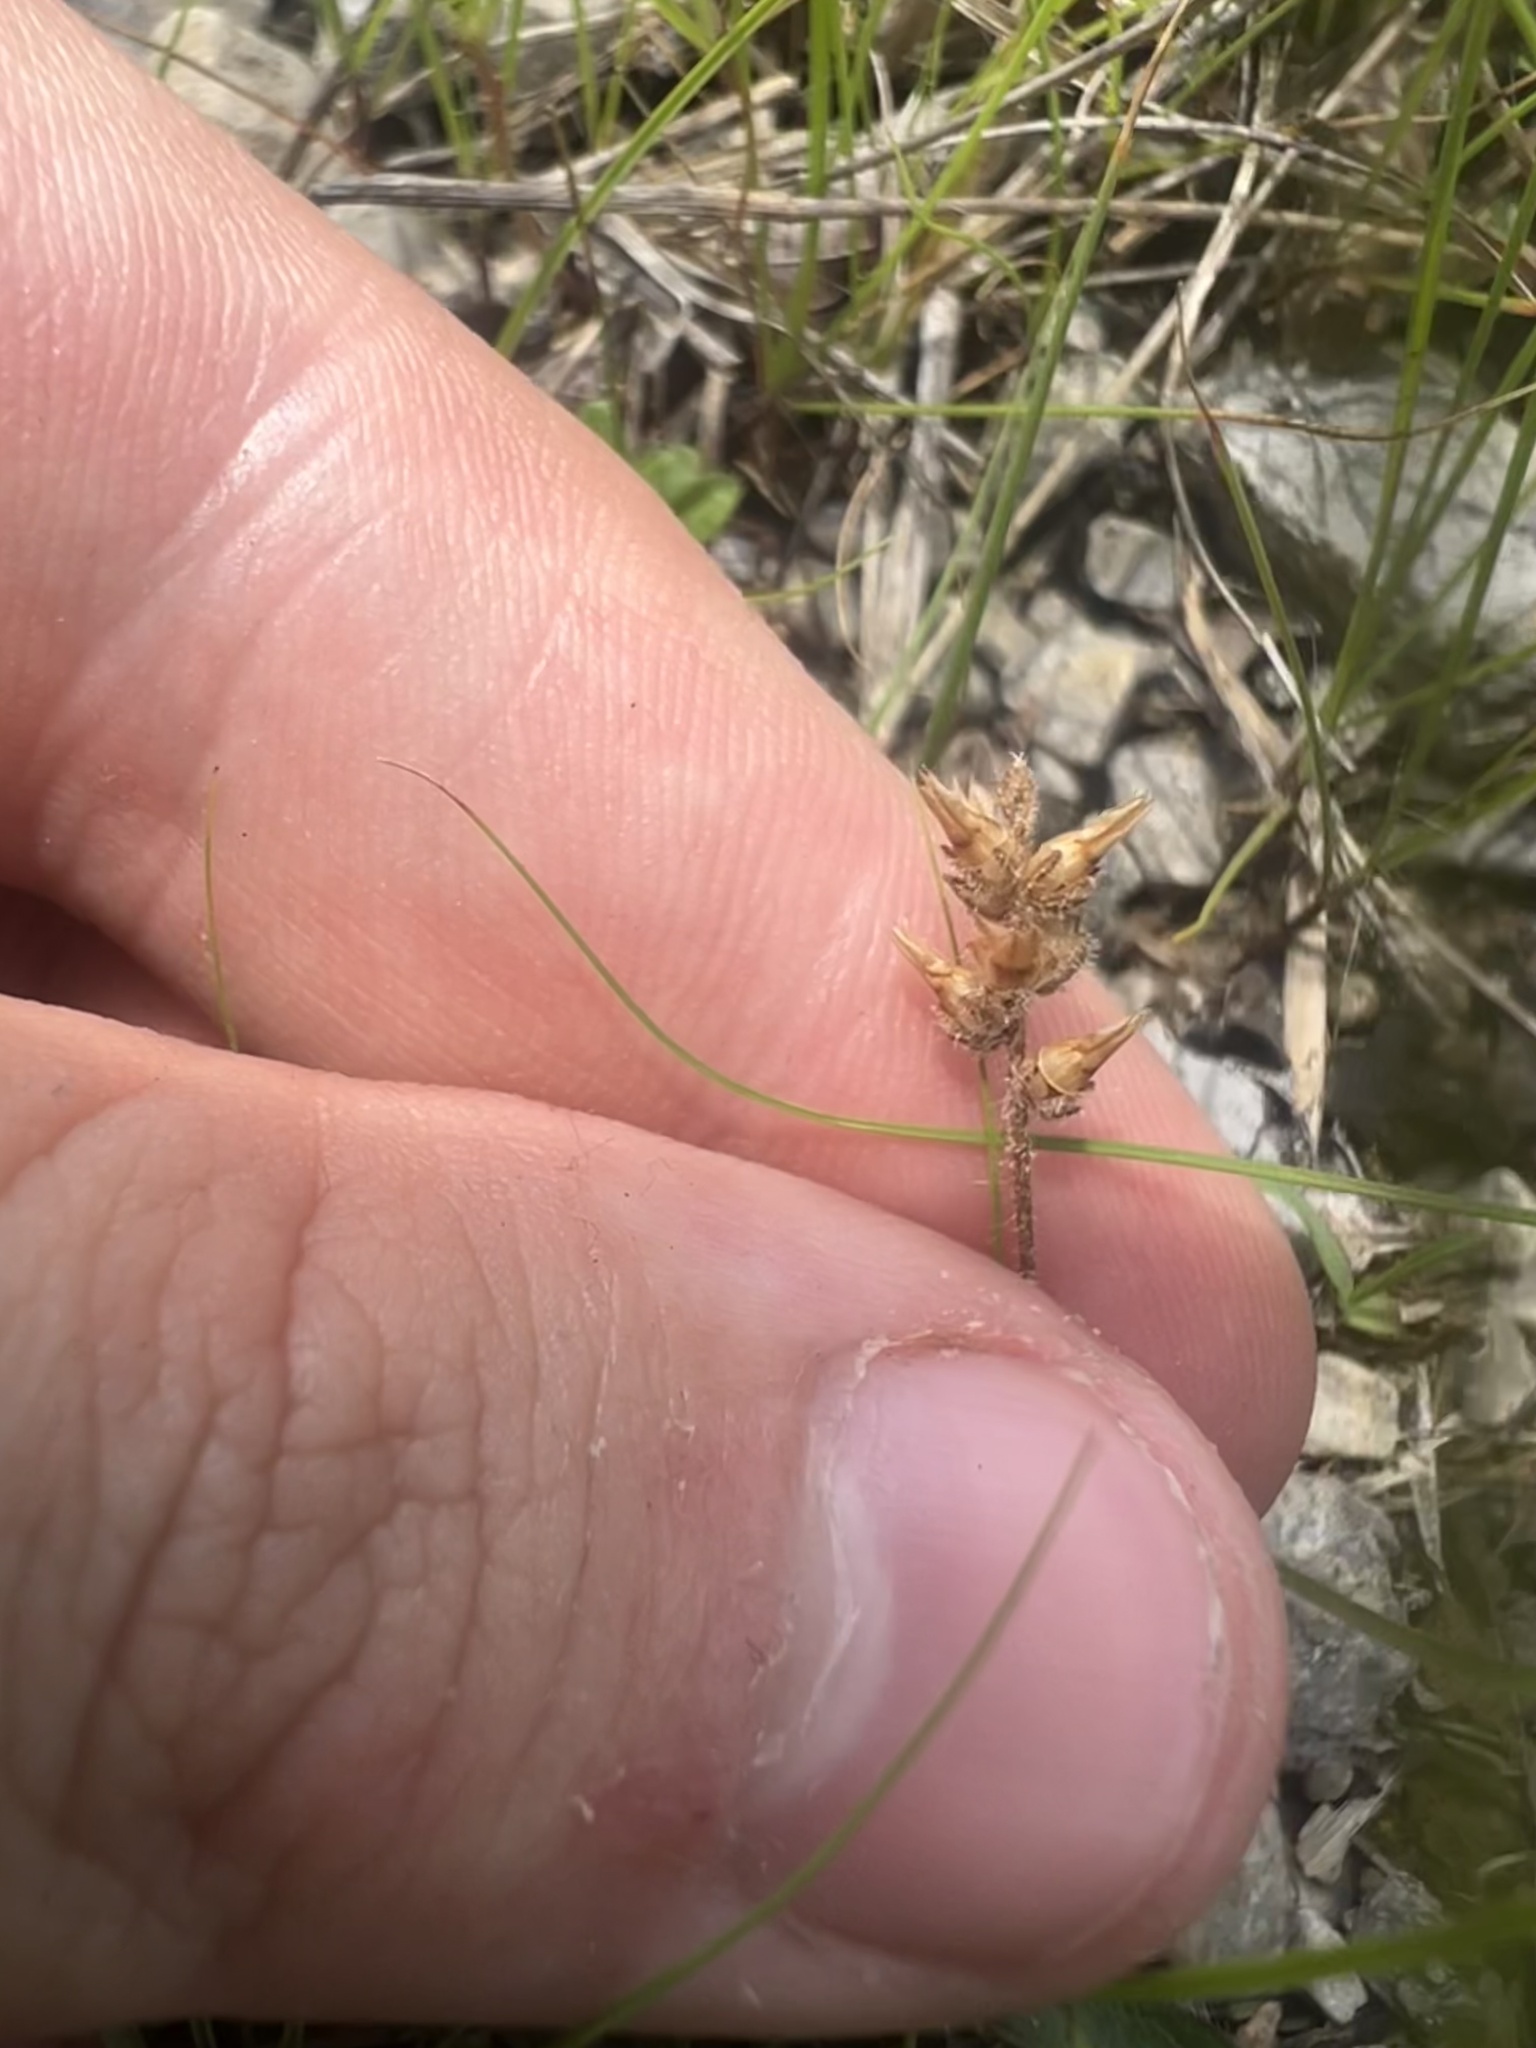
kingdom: Plantae
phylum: Tracheophyta
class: Magnoliopsida
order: Lamiales
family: Plantaginaceae
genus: Plantago
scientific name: Plantago virginica
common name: Hoary plantain
